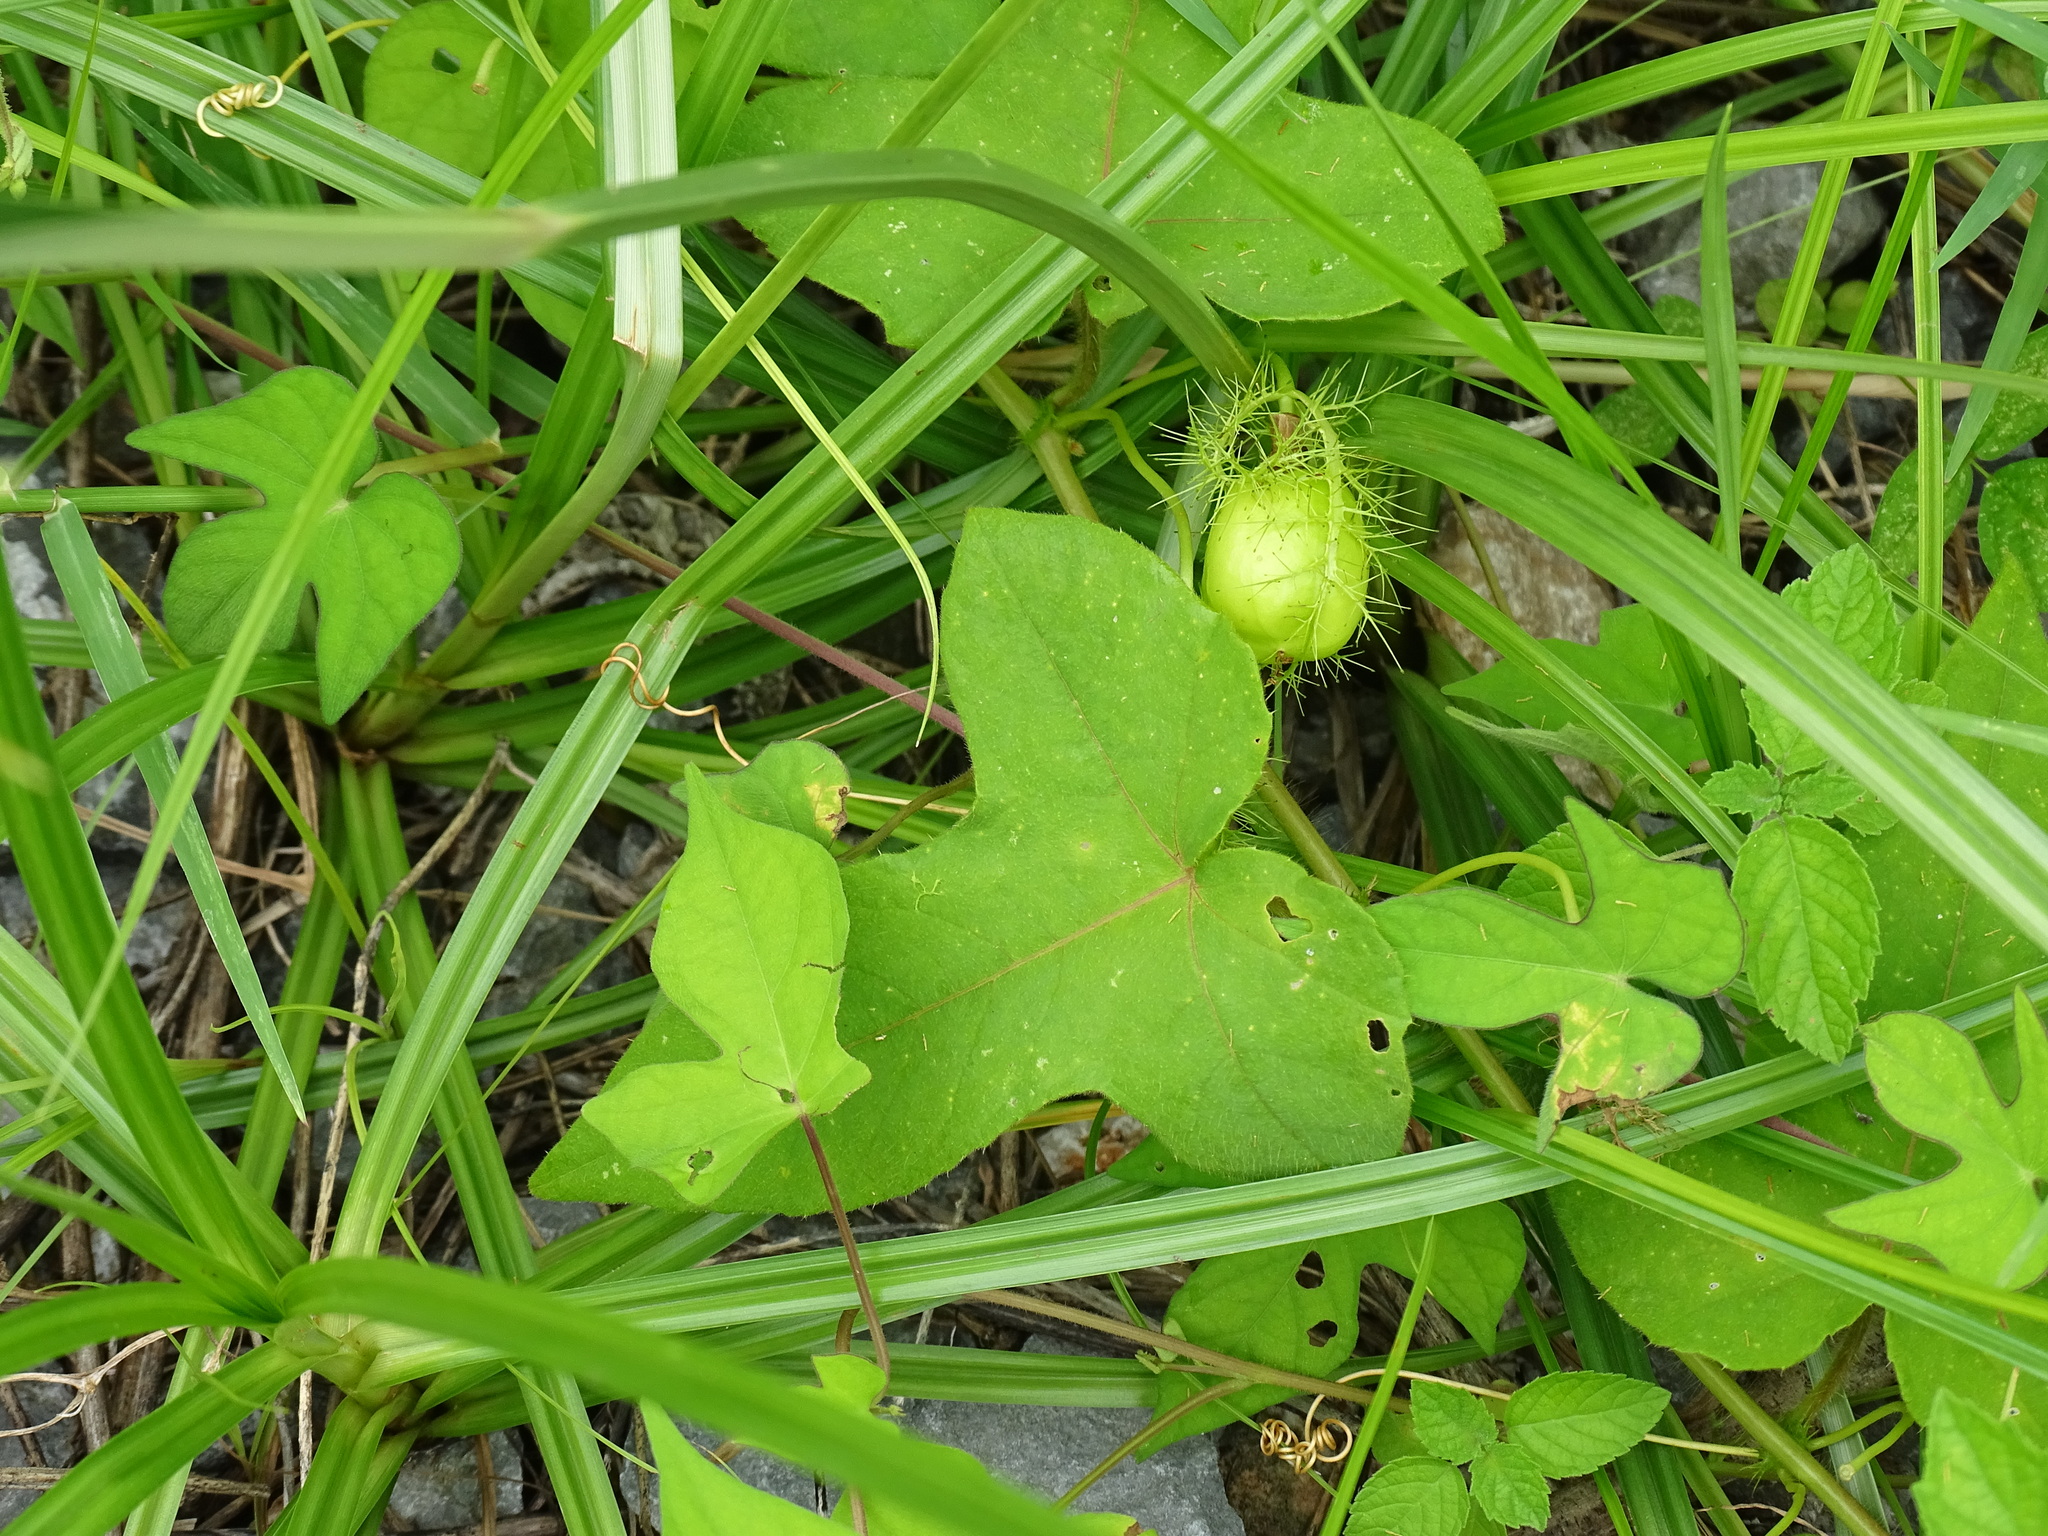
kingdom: Plantae
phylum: Tracheophyta
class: Magnoliopsida
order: Malpighiales
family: Passifloraceae
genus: Passiflora
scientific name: Passiflora foetida
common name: Fetid passionflower
